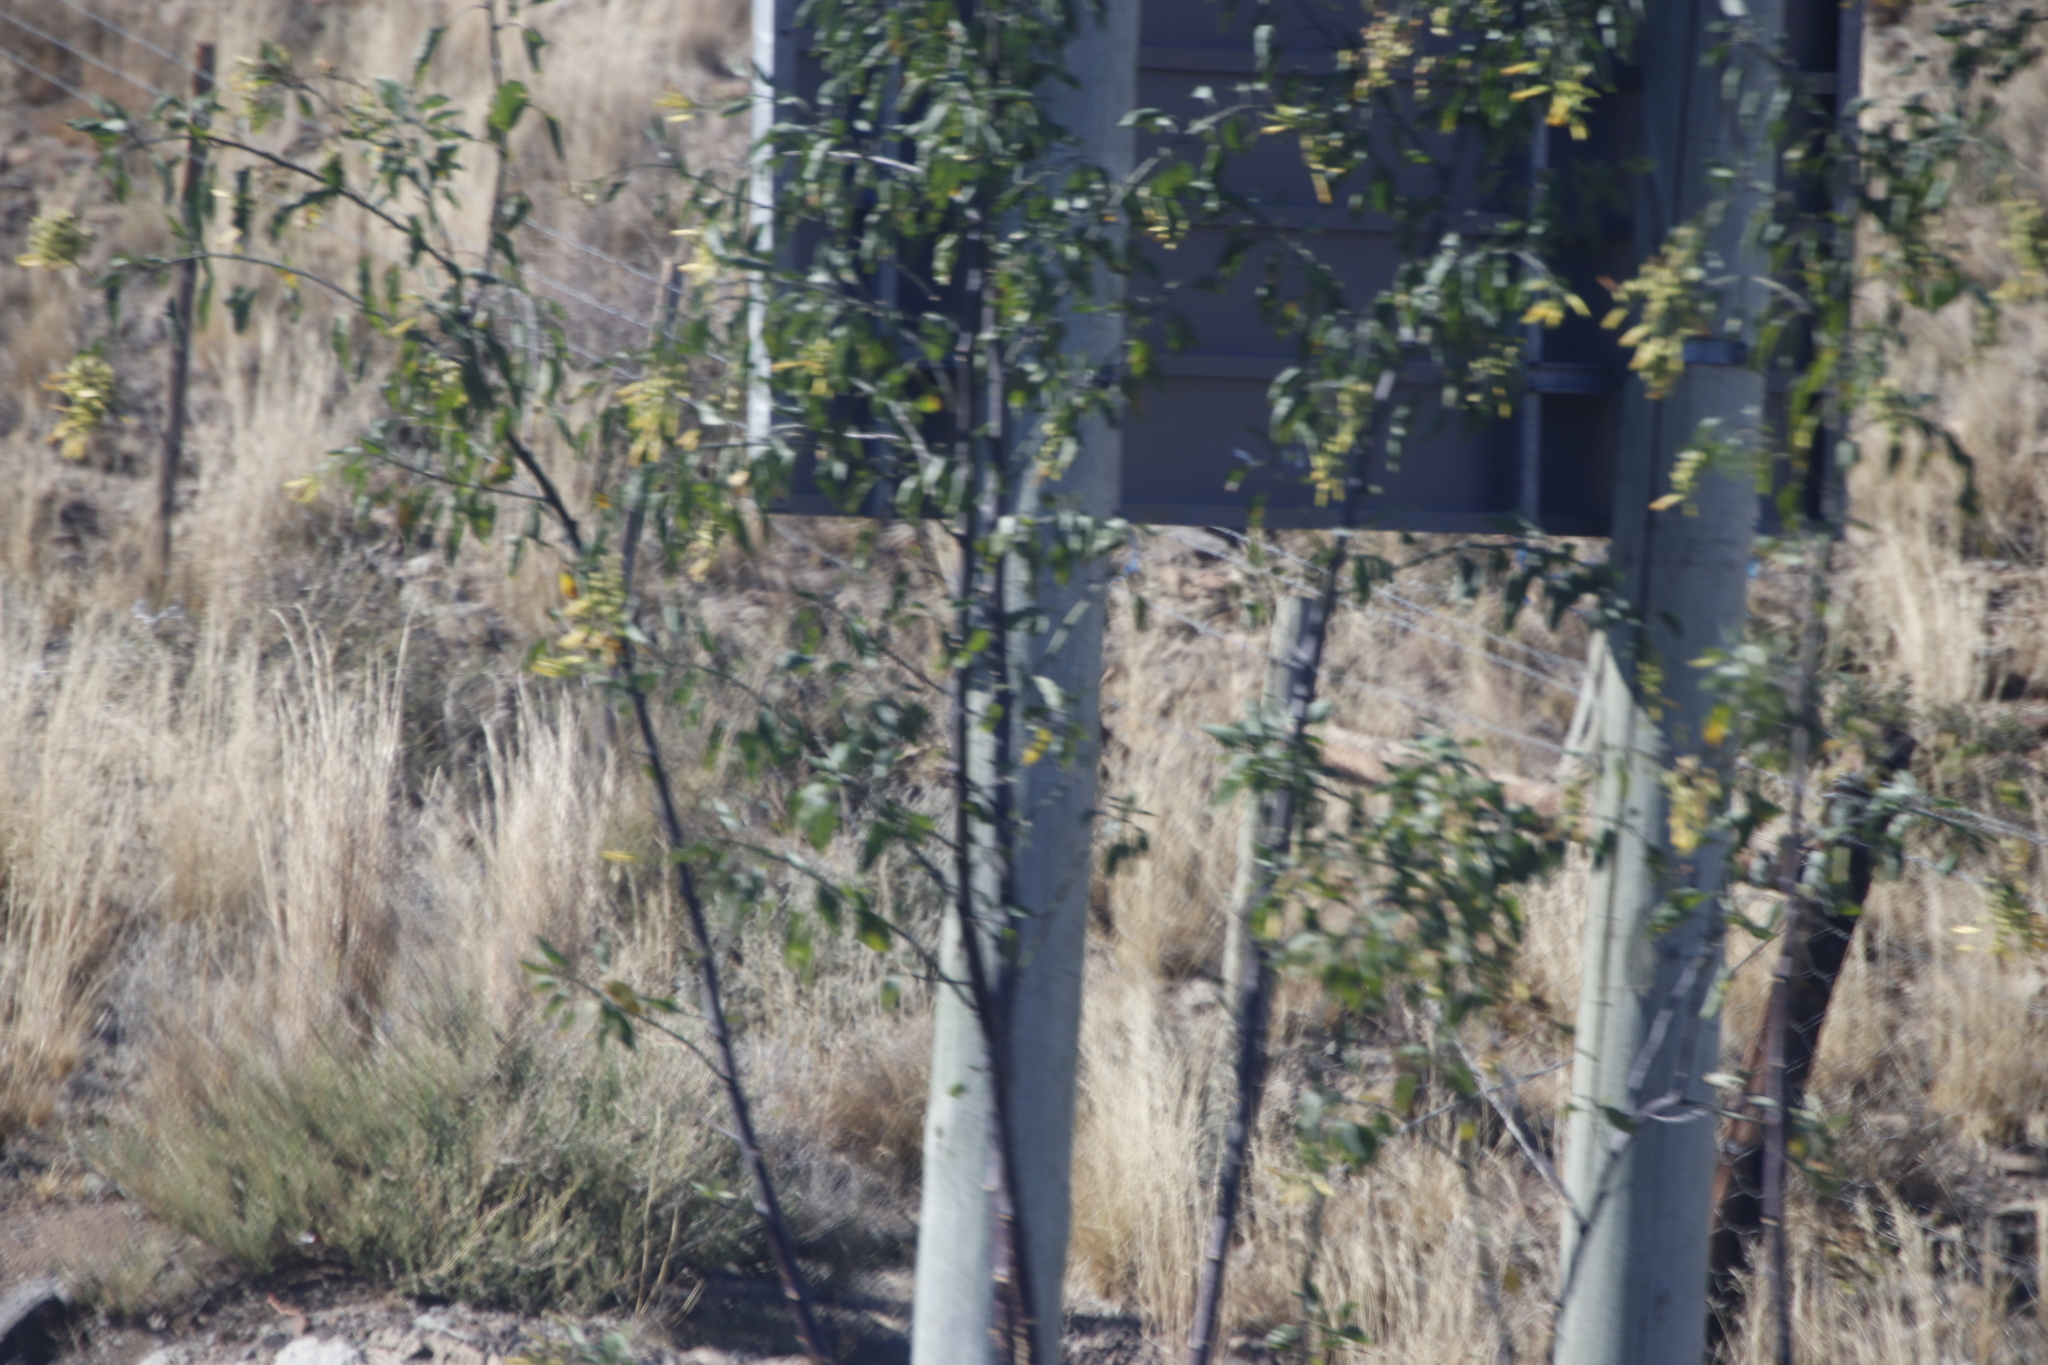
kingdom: Plantae
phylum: Tracheophyta
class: Magnoliopsida
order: Solanales
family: Solanaceae
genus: Nicotiana
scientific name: Nicotiana glauca
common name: Tree tobacco
